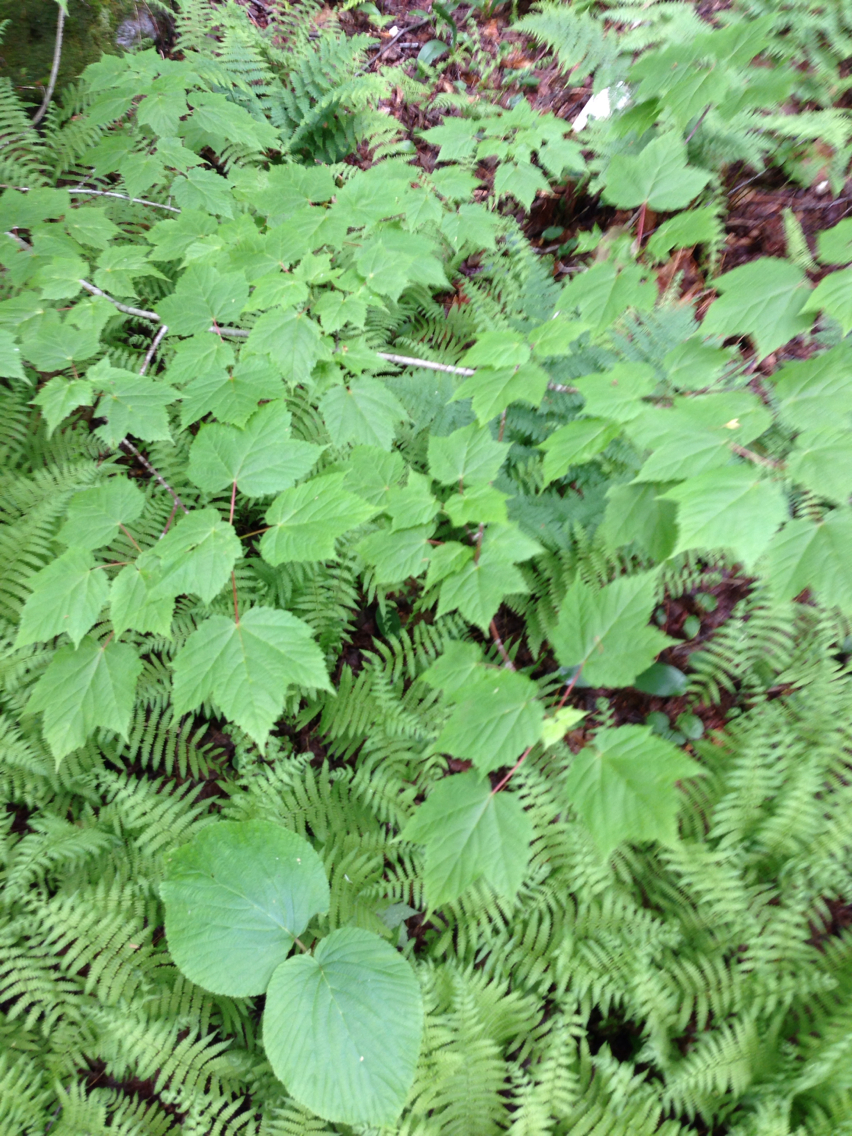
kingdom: Plantae
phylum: Tracheophyta
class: Magnoliopsida
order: Sapindales
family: Sapindaceae
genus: Acer
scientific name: Acer spicatum
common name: Mountain maple
